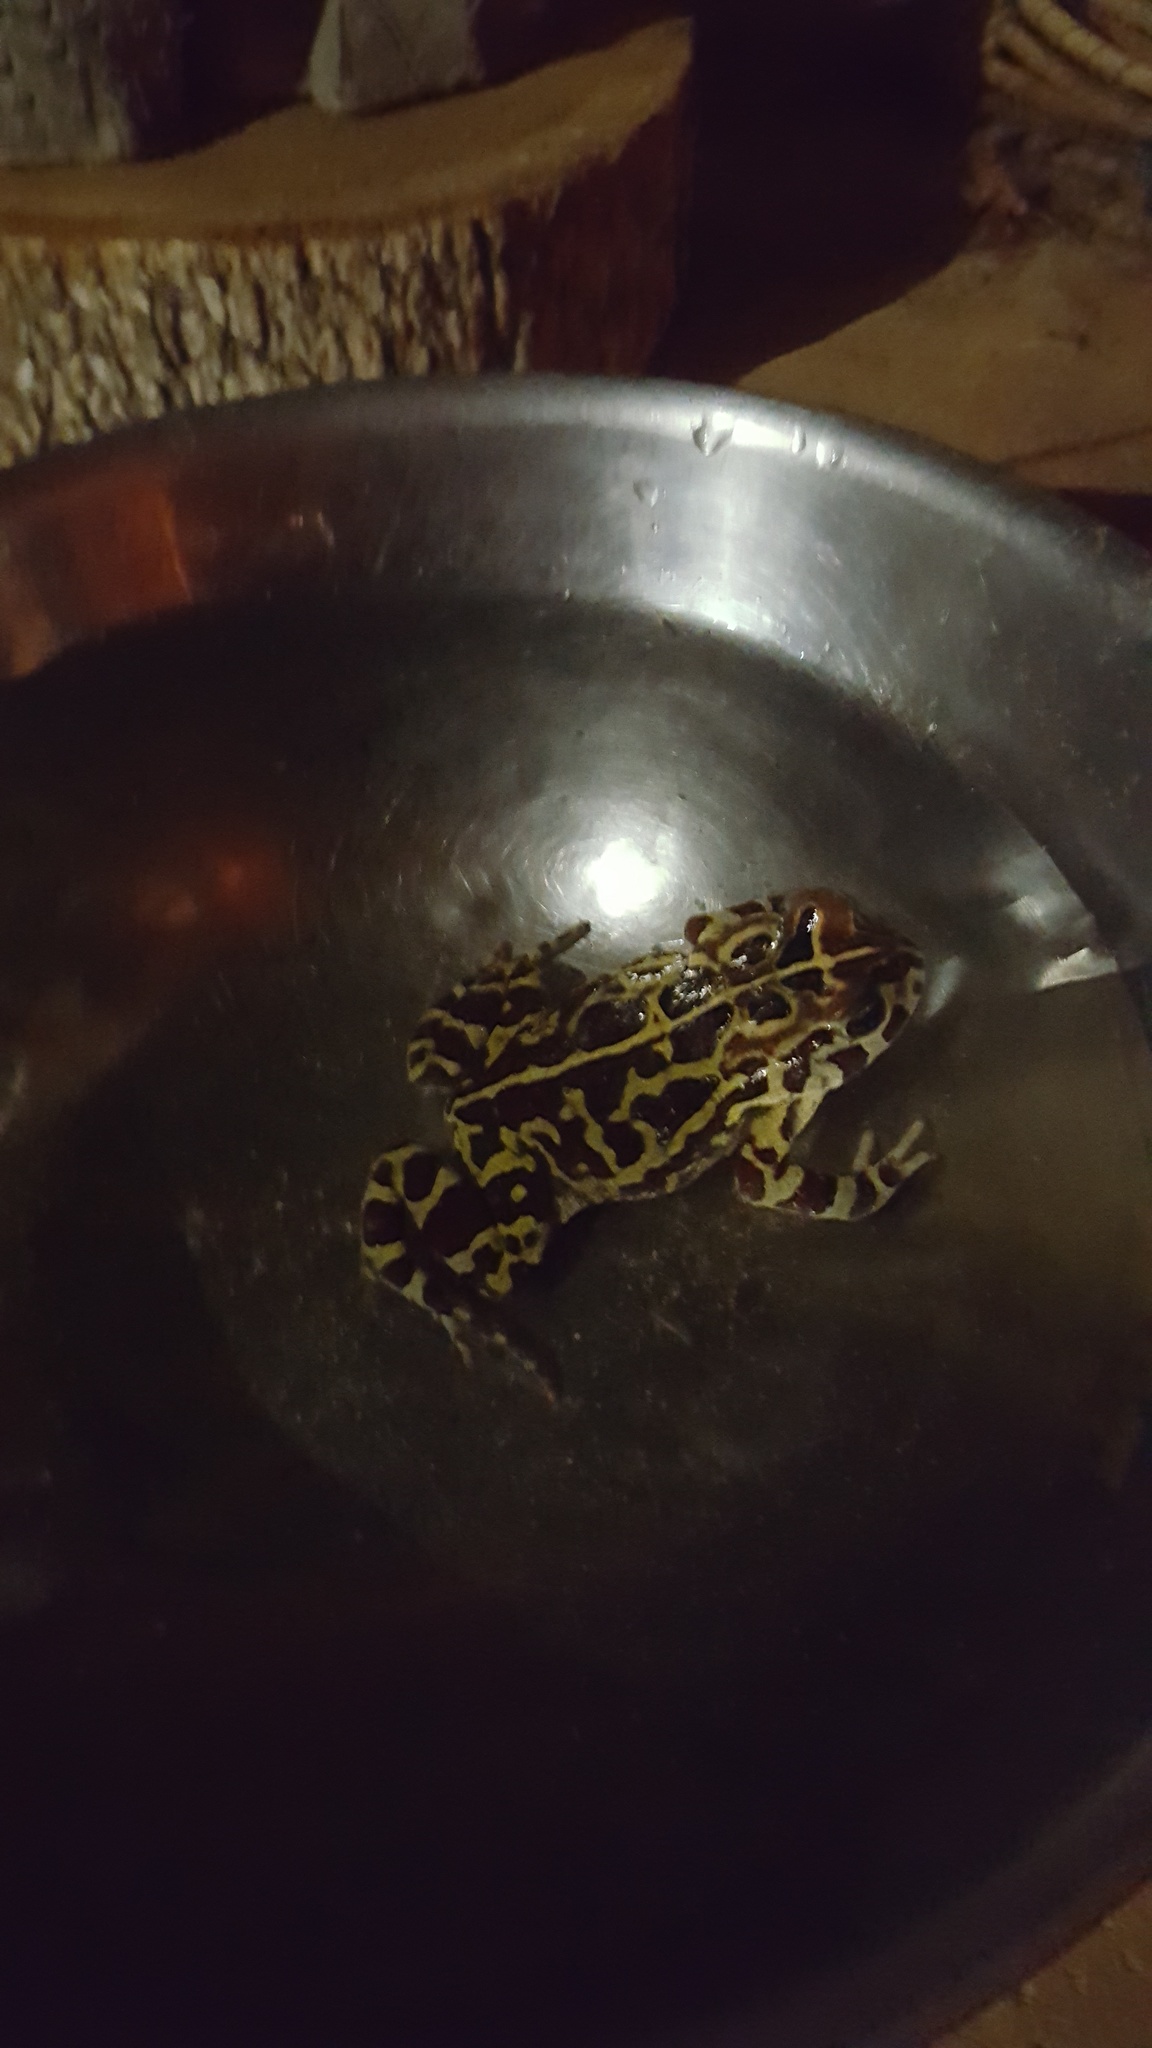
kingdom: Animalia
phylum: Chordata
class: Amphibia
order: Anura
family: Bufonidae
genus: Sclerophrys
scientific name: Sclerophrys pantherina
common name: Panther toad
